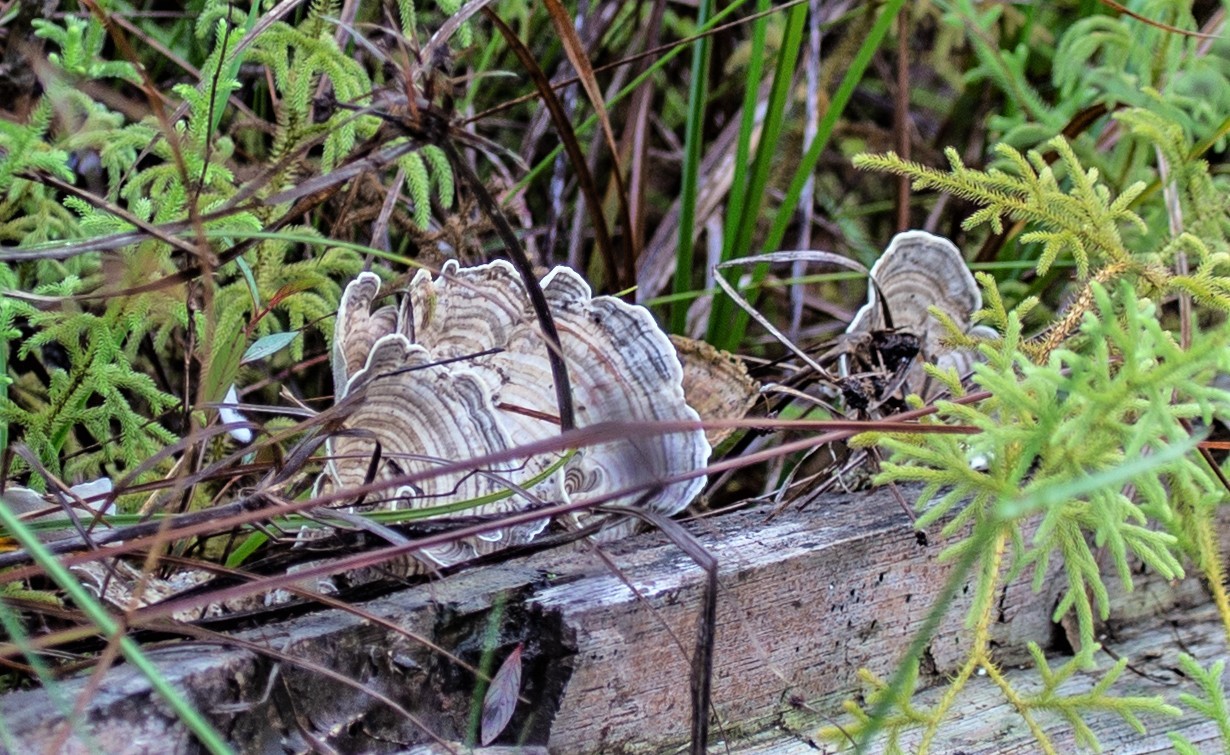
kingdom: Plantae
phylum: Tracheophyta
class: Lycopodiopsida
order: Lycopodiales
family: Lycopodiaceae
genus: Palhinhaea
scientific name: Palhinhaea cernua
